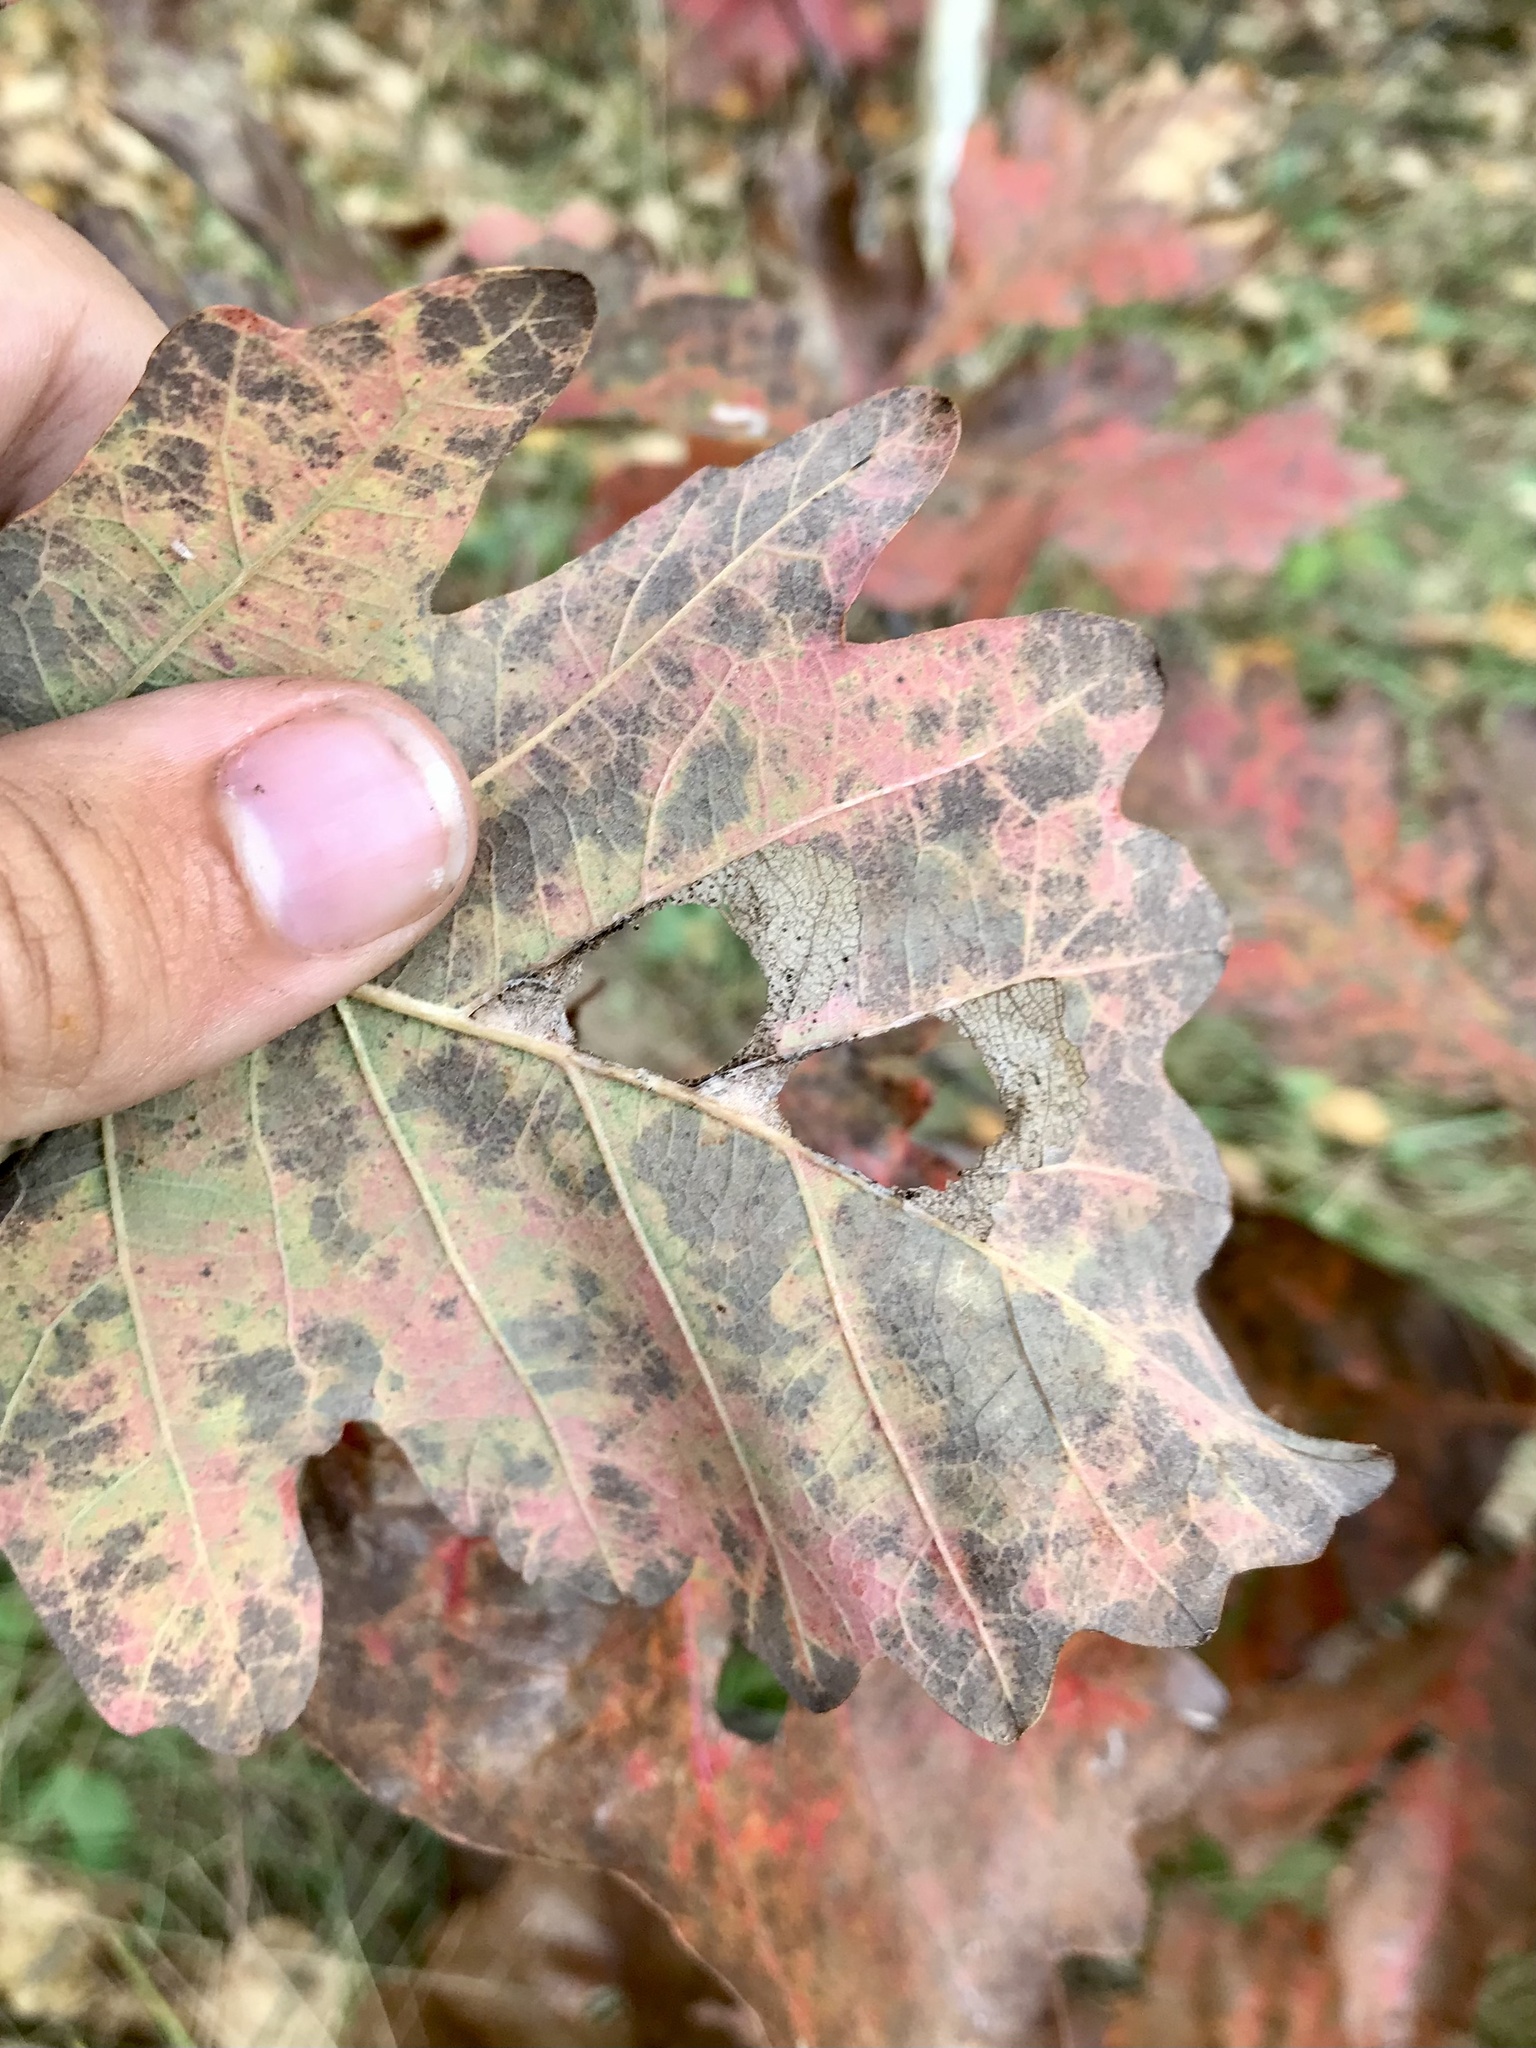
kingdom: Animalia
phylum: Arthropoda
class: Insecta
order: Lepidoptera
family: Depressariidae
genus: Menesta
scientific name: Menesta melanella
